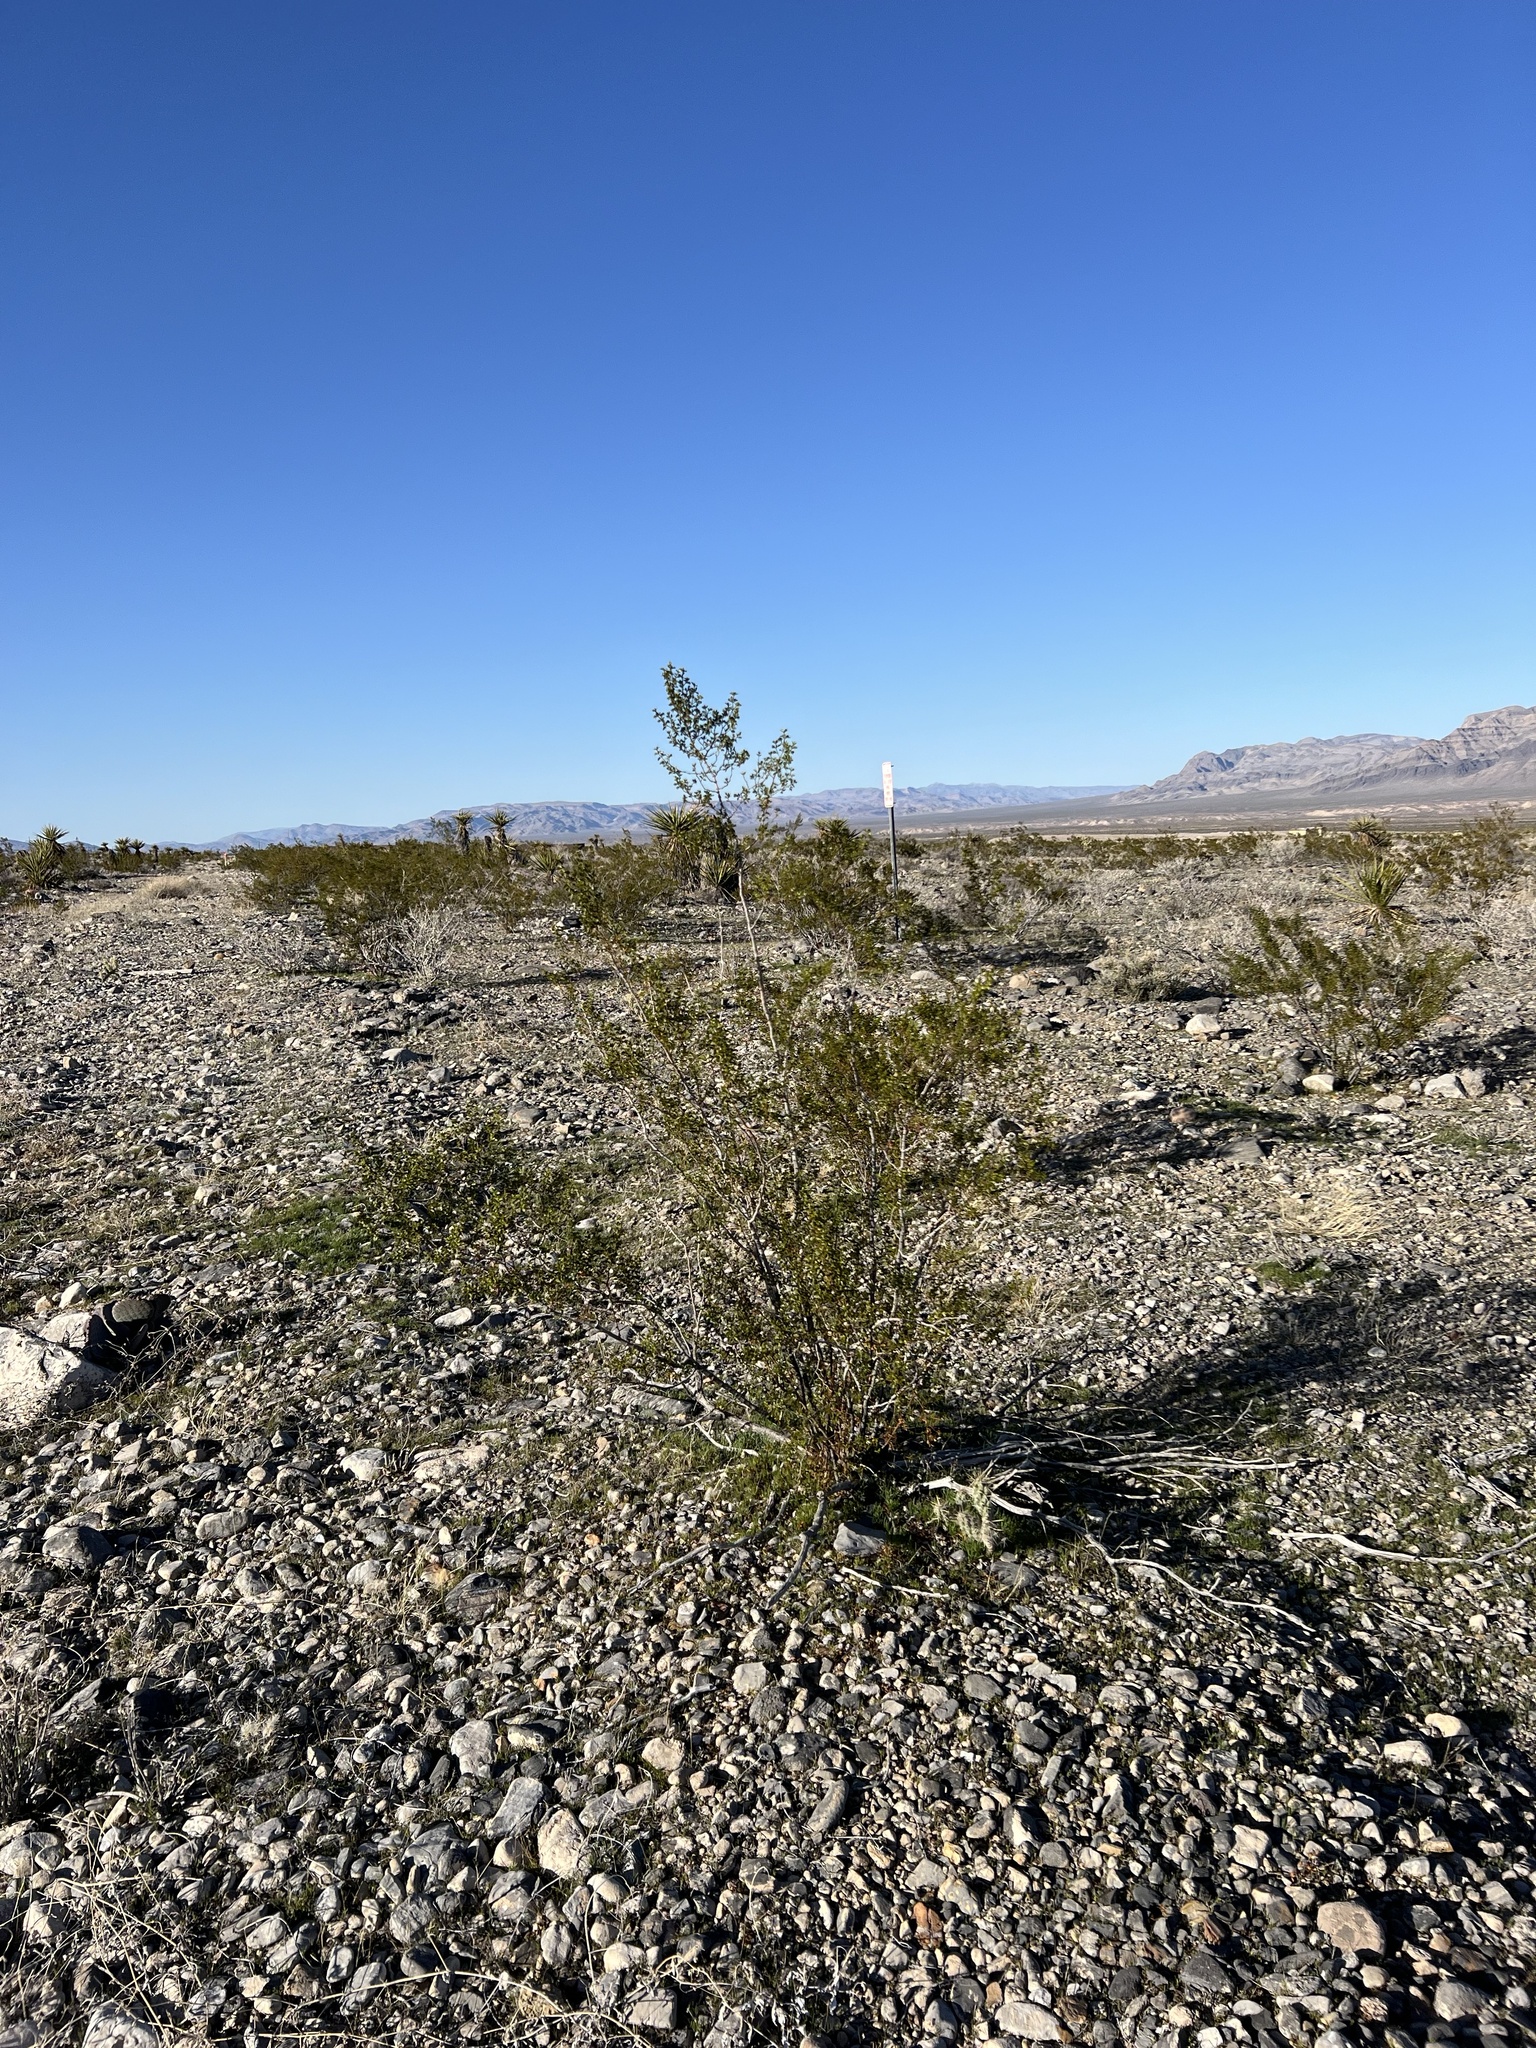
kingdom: Plantae
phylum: Tracheophyta
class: Magnoliopsida
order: Zygophyllales
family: Zygophyllaceae
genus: Larrea
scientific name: Larrea tridentata
